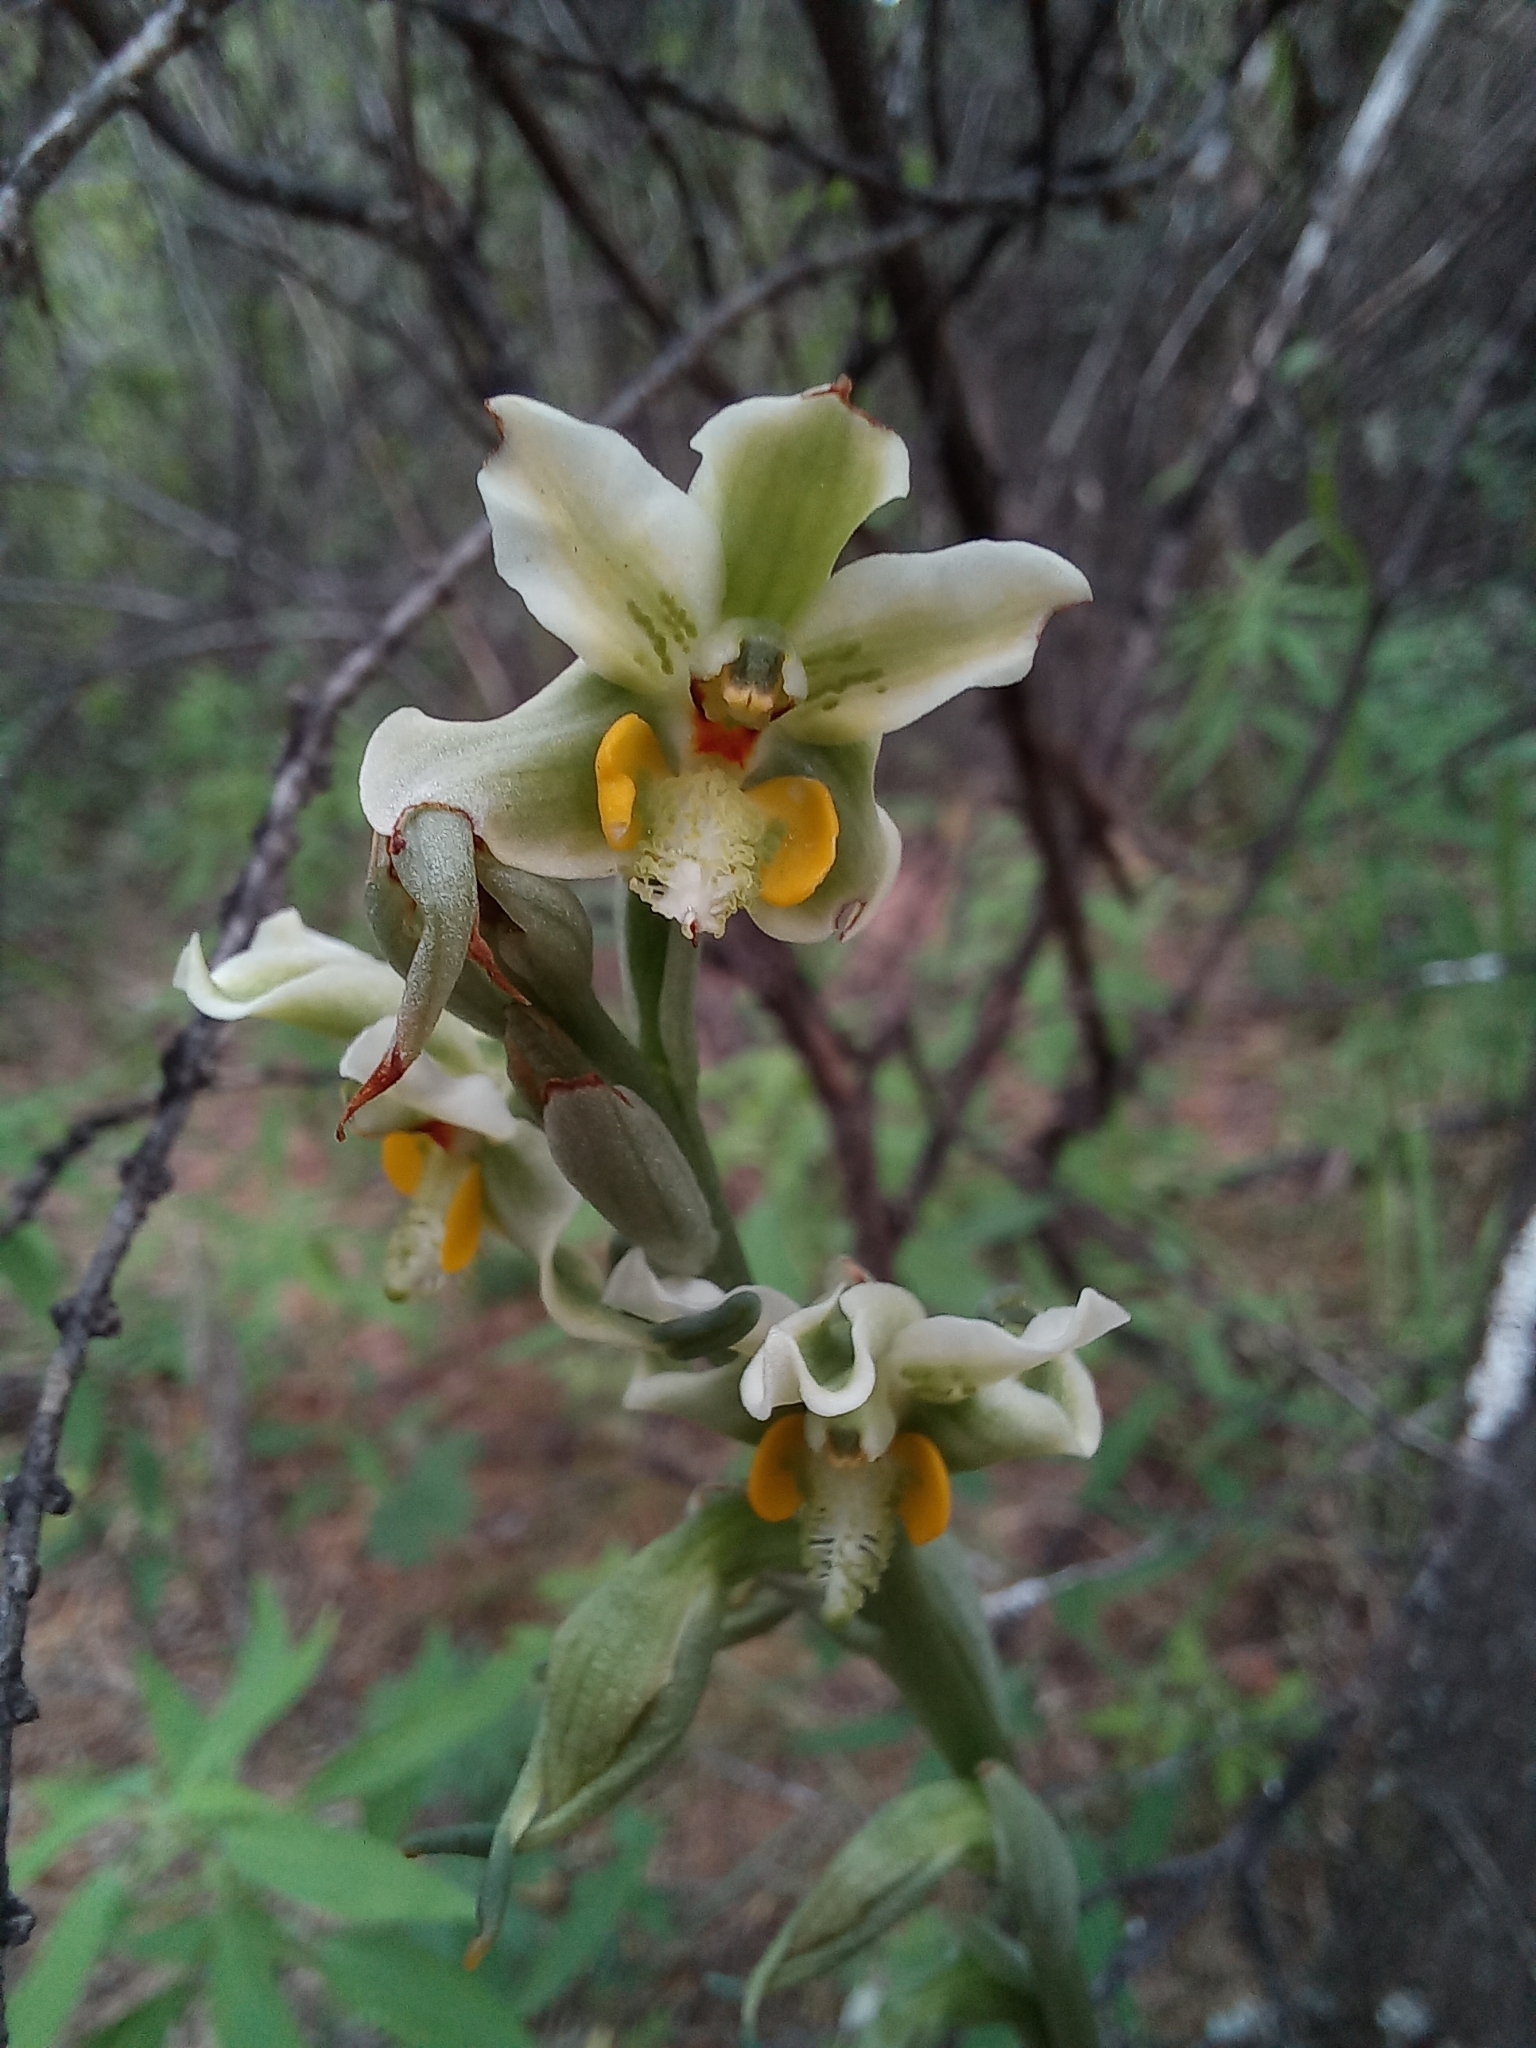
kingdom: Plantae
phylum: Tracheophyta
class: Liliopsida
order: Asparagales
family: Orchidaceae
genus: Gavilea
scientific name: Gavilea glandulifera
